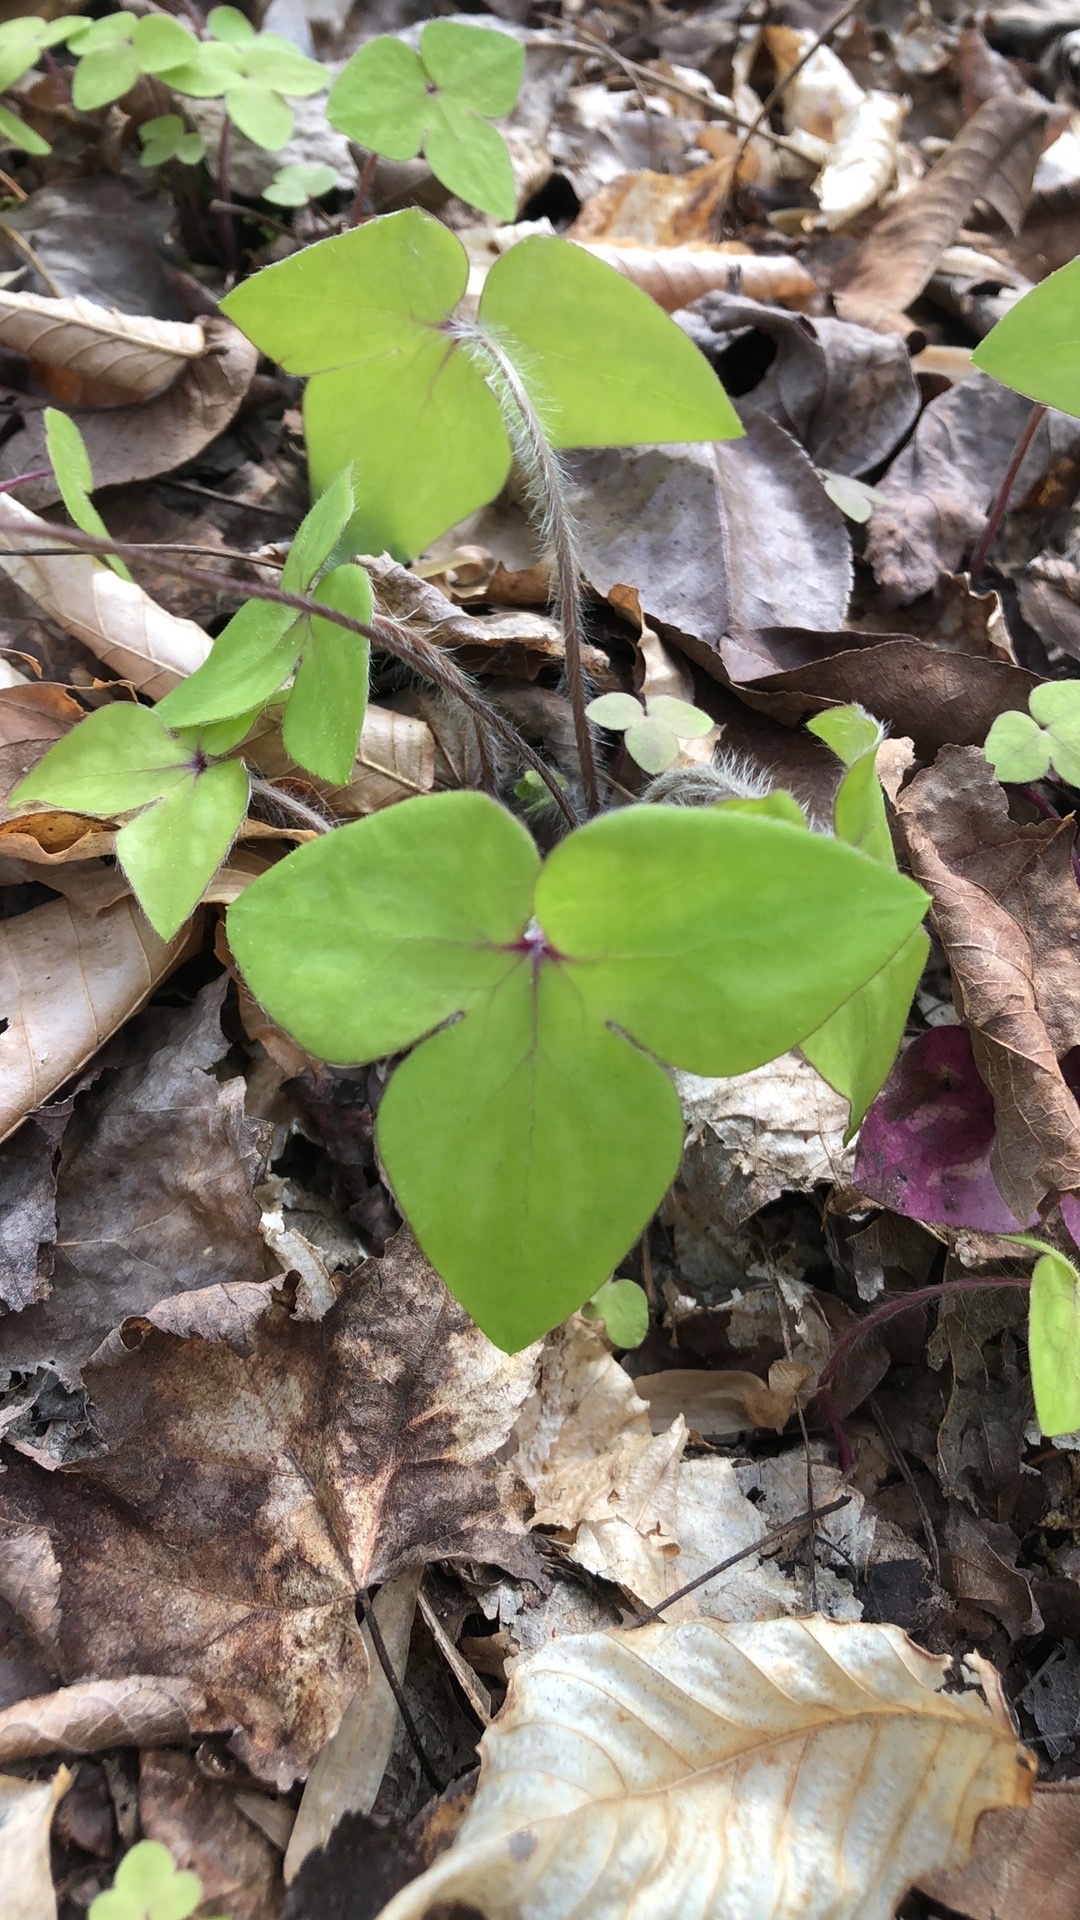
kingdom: Plantae
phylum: Tracheophyta
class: Magnoliopsida
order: Ranunculales
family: Ranunculaceae
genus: Hepatica
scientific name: Hepatica acutiloba
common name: Sharp-lobed hepatica
